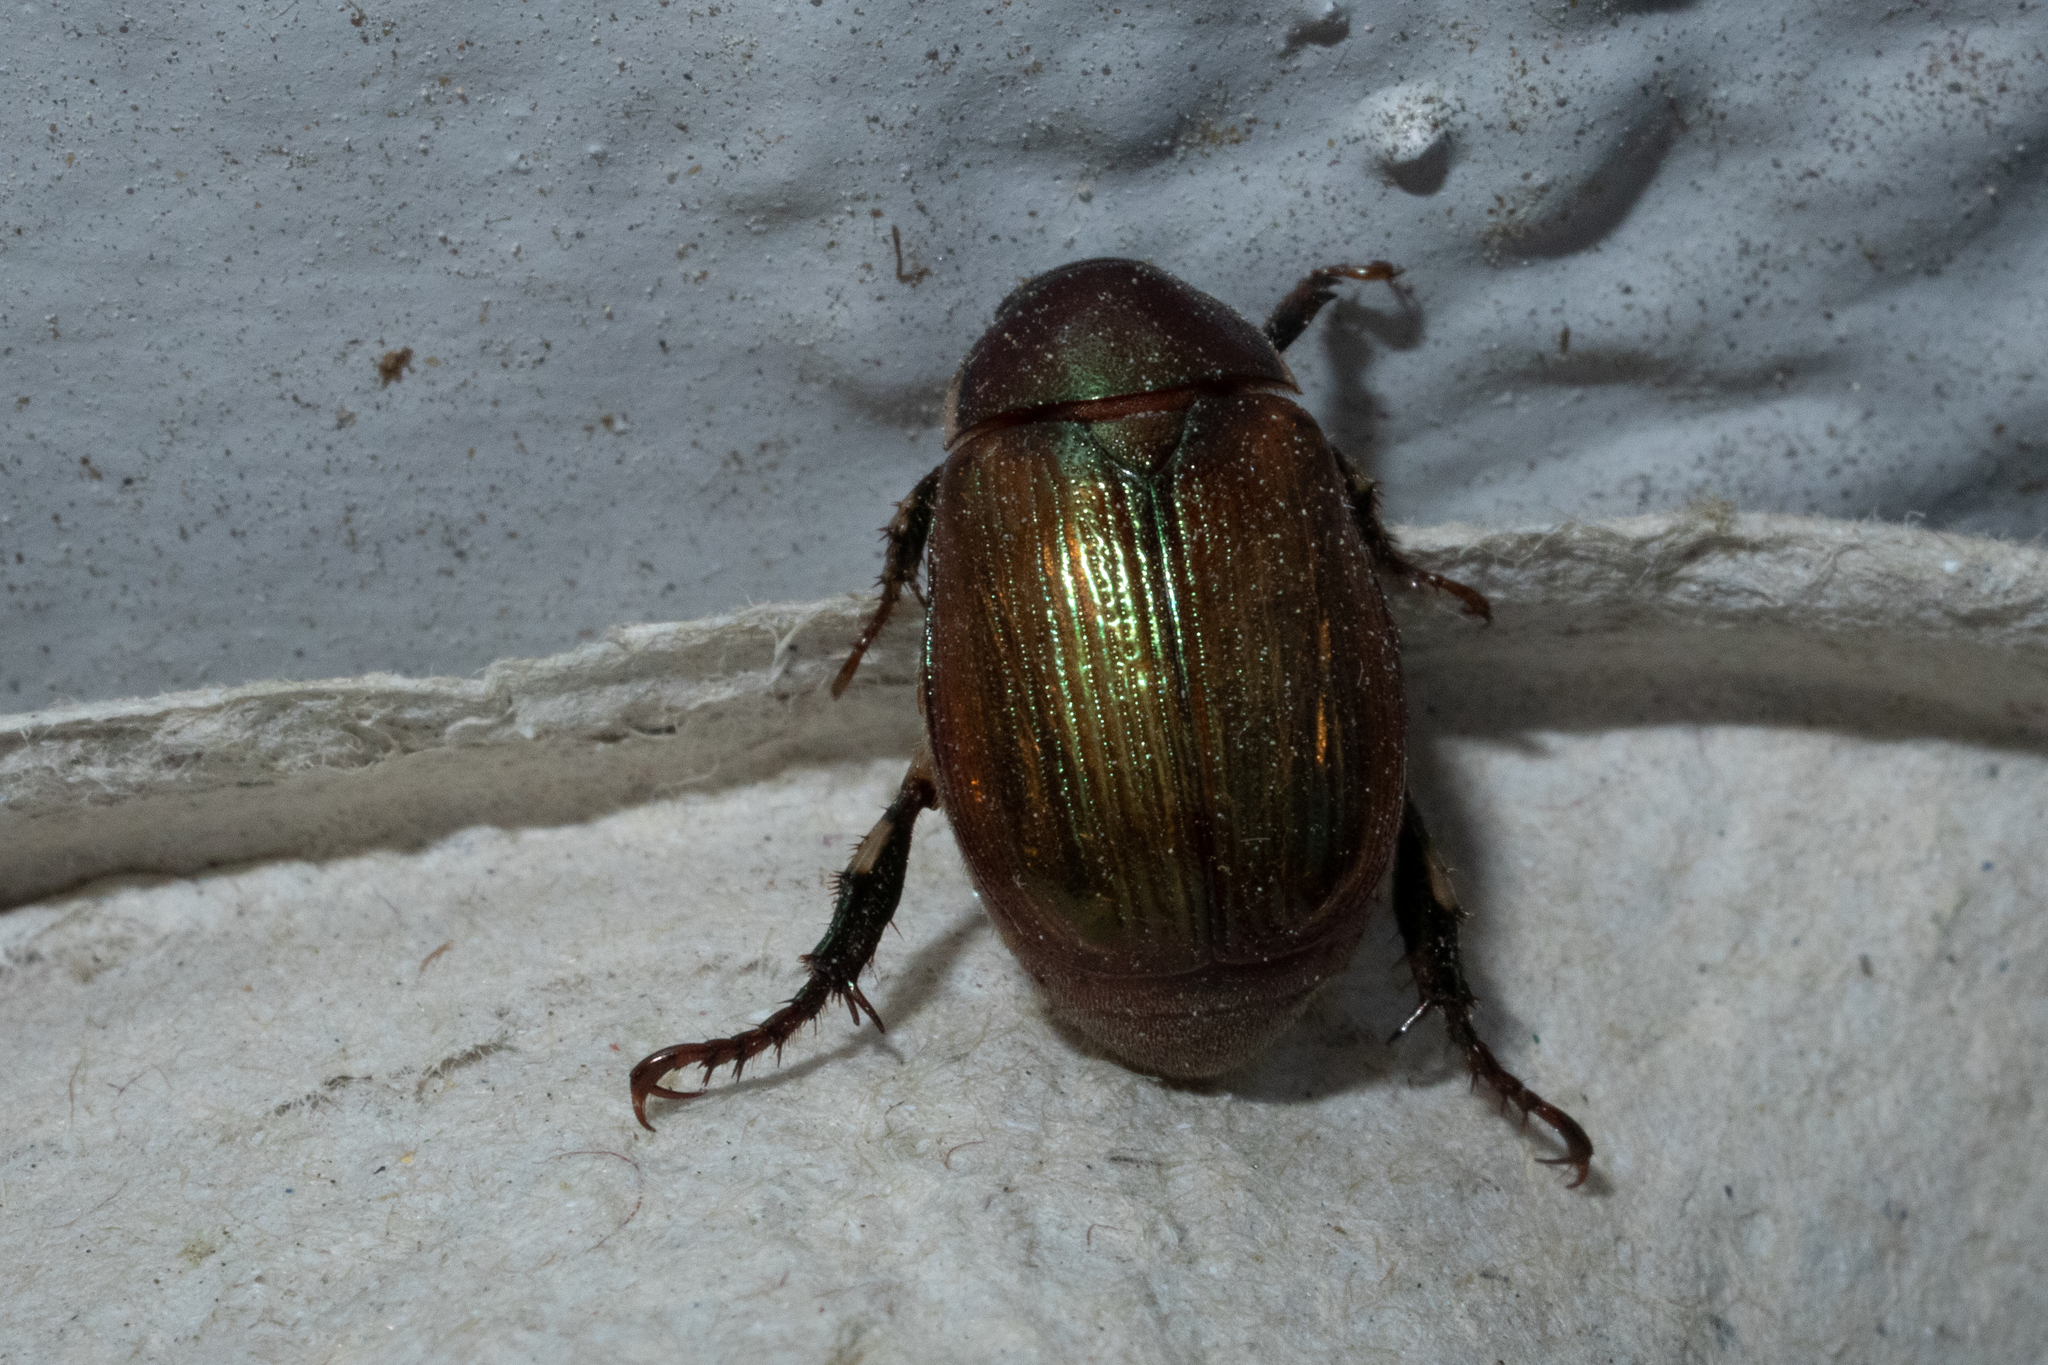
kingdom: Animalia
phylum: Arthropoda
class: Insecta
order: Coleoptera
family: Scarabaeidae
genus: Callistethus
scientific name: Callistethus marginatus
